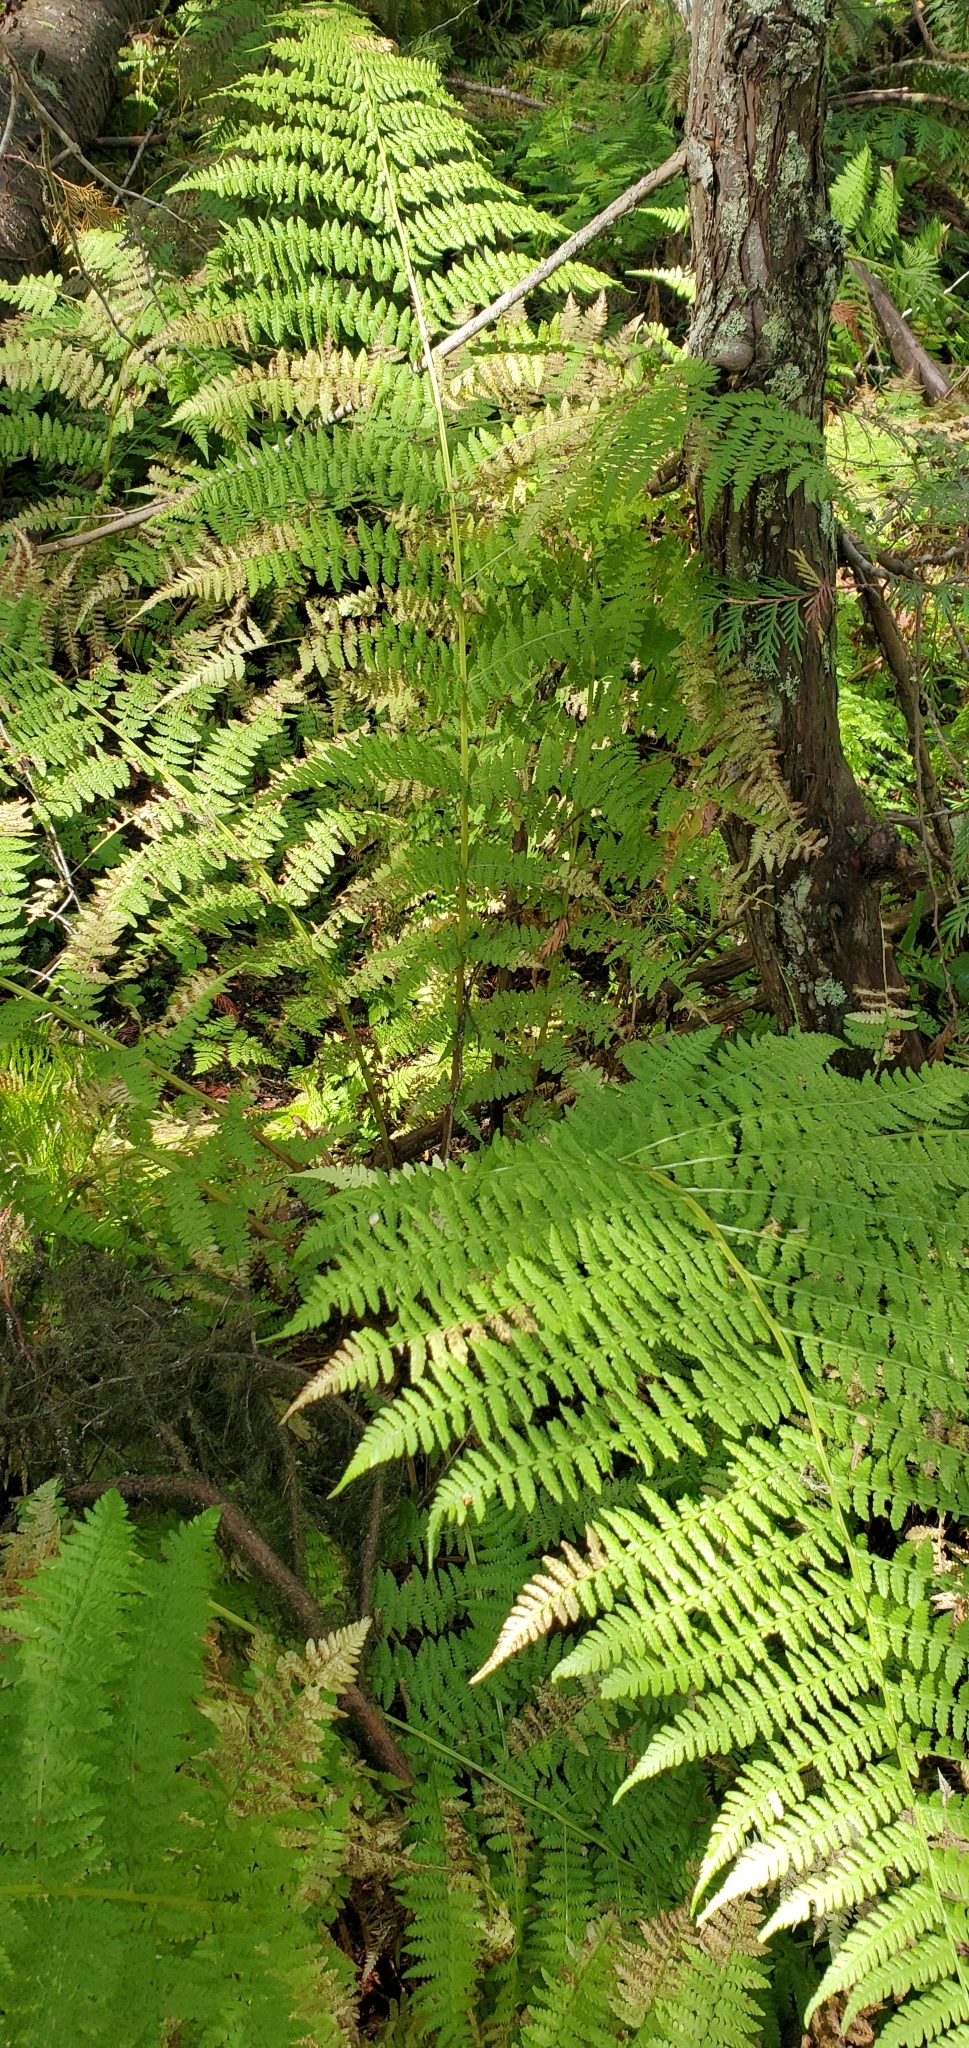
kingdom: Plantae
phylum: Tracheophyta
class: Polypodiopsida
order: Polypodiales
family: Athyriaceae
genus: Athyrium
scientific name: Athyrium filix-femina
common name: Lady fern
